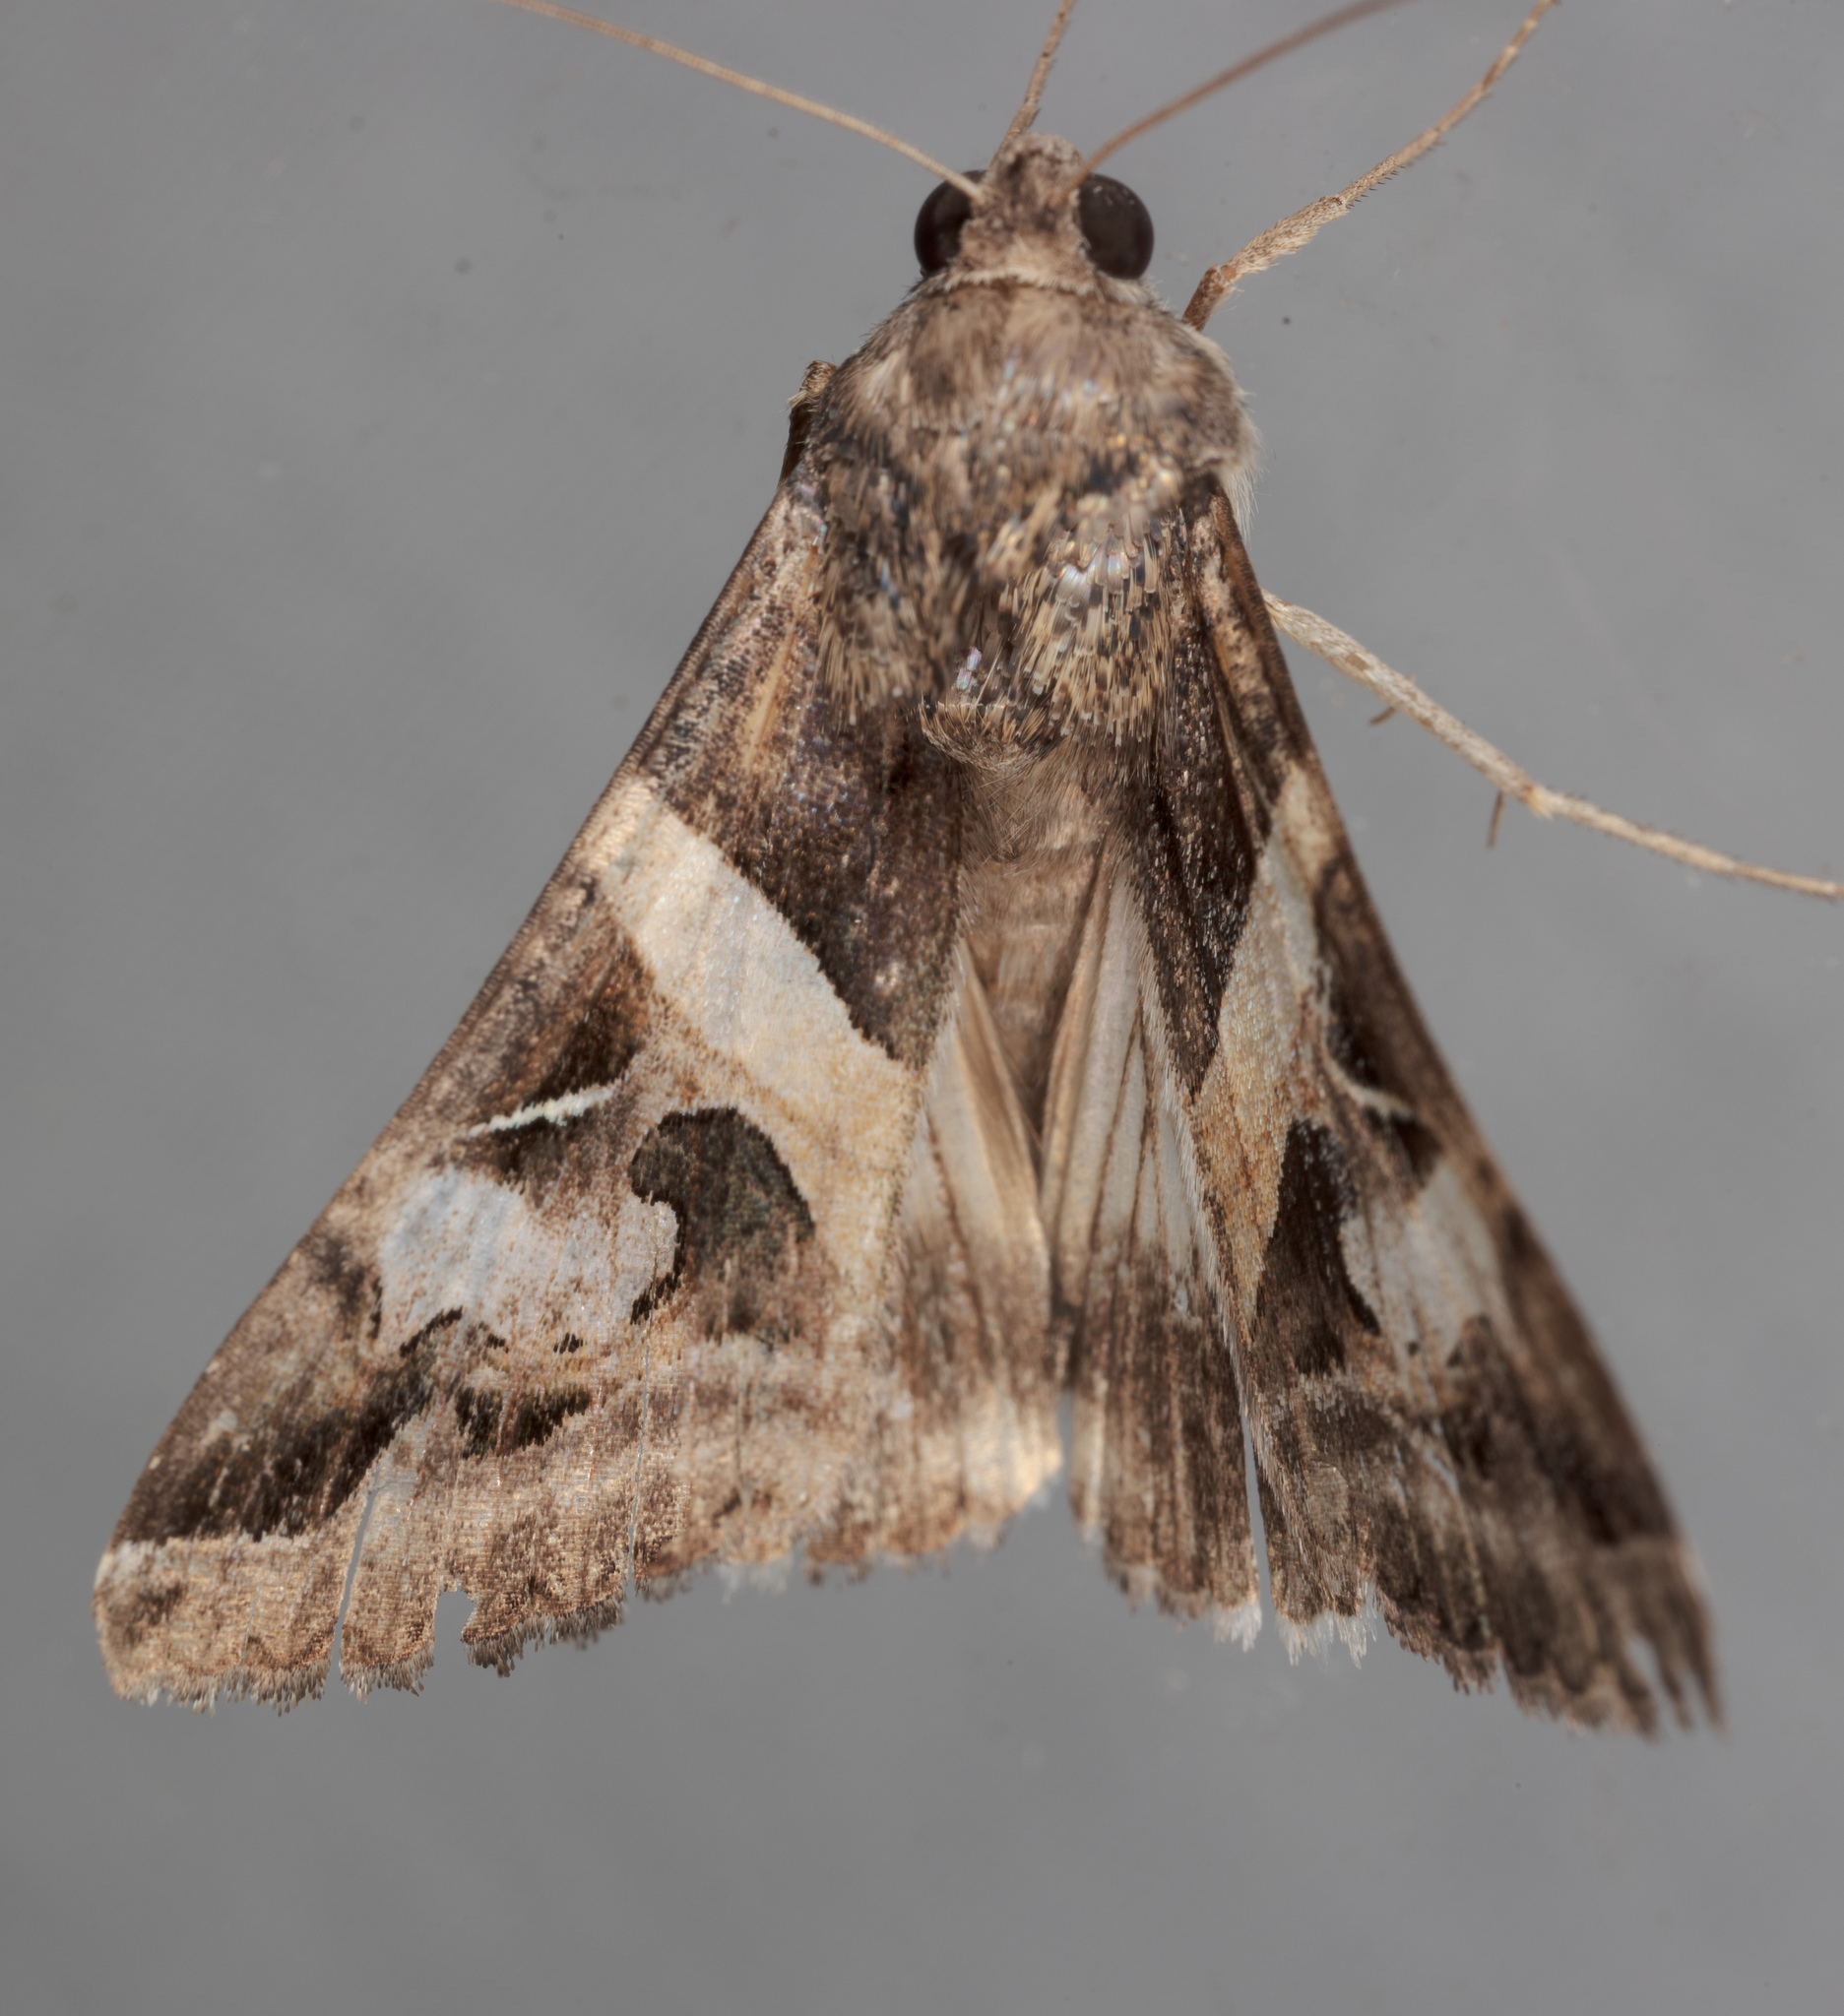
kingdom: Animalia
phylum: Arthropoda
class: Insecta
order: Lepidoptera
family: Erebidae
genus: Melipotis
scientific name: Melipotis indomita
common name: Moth
